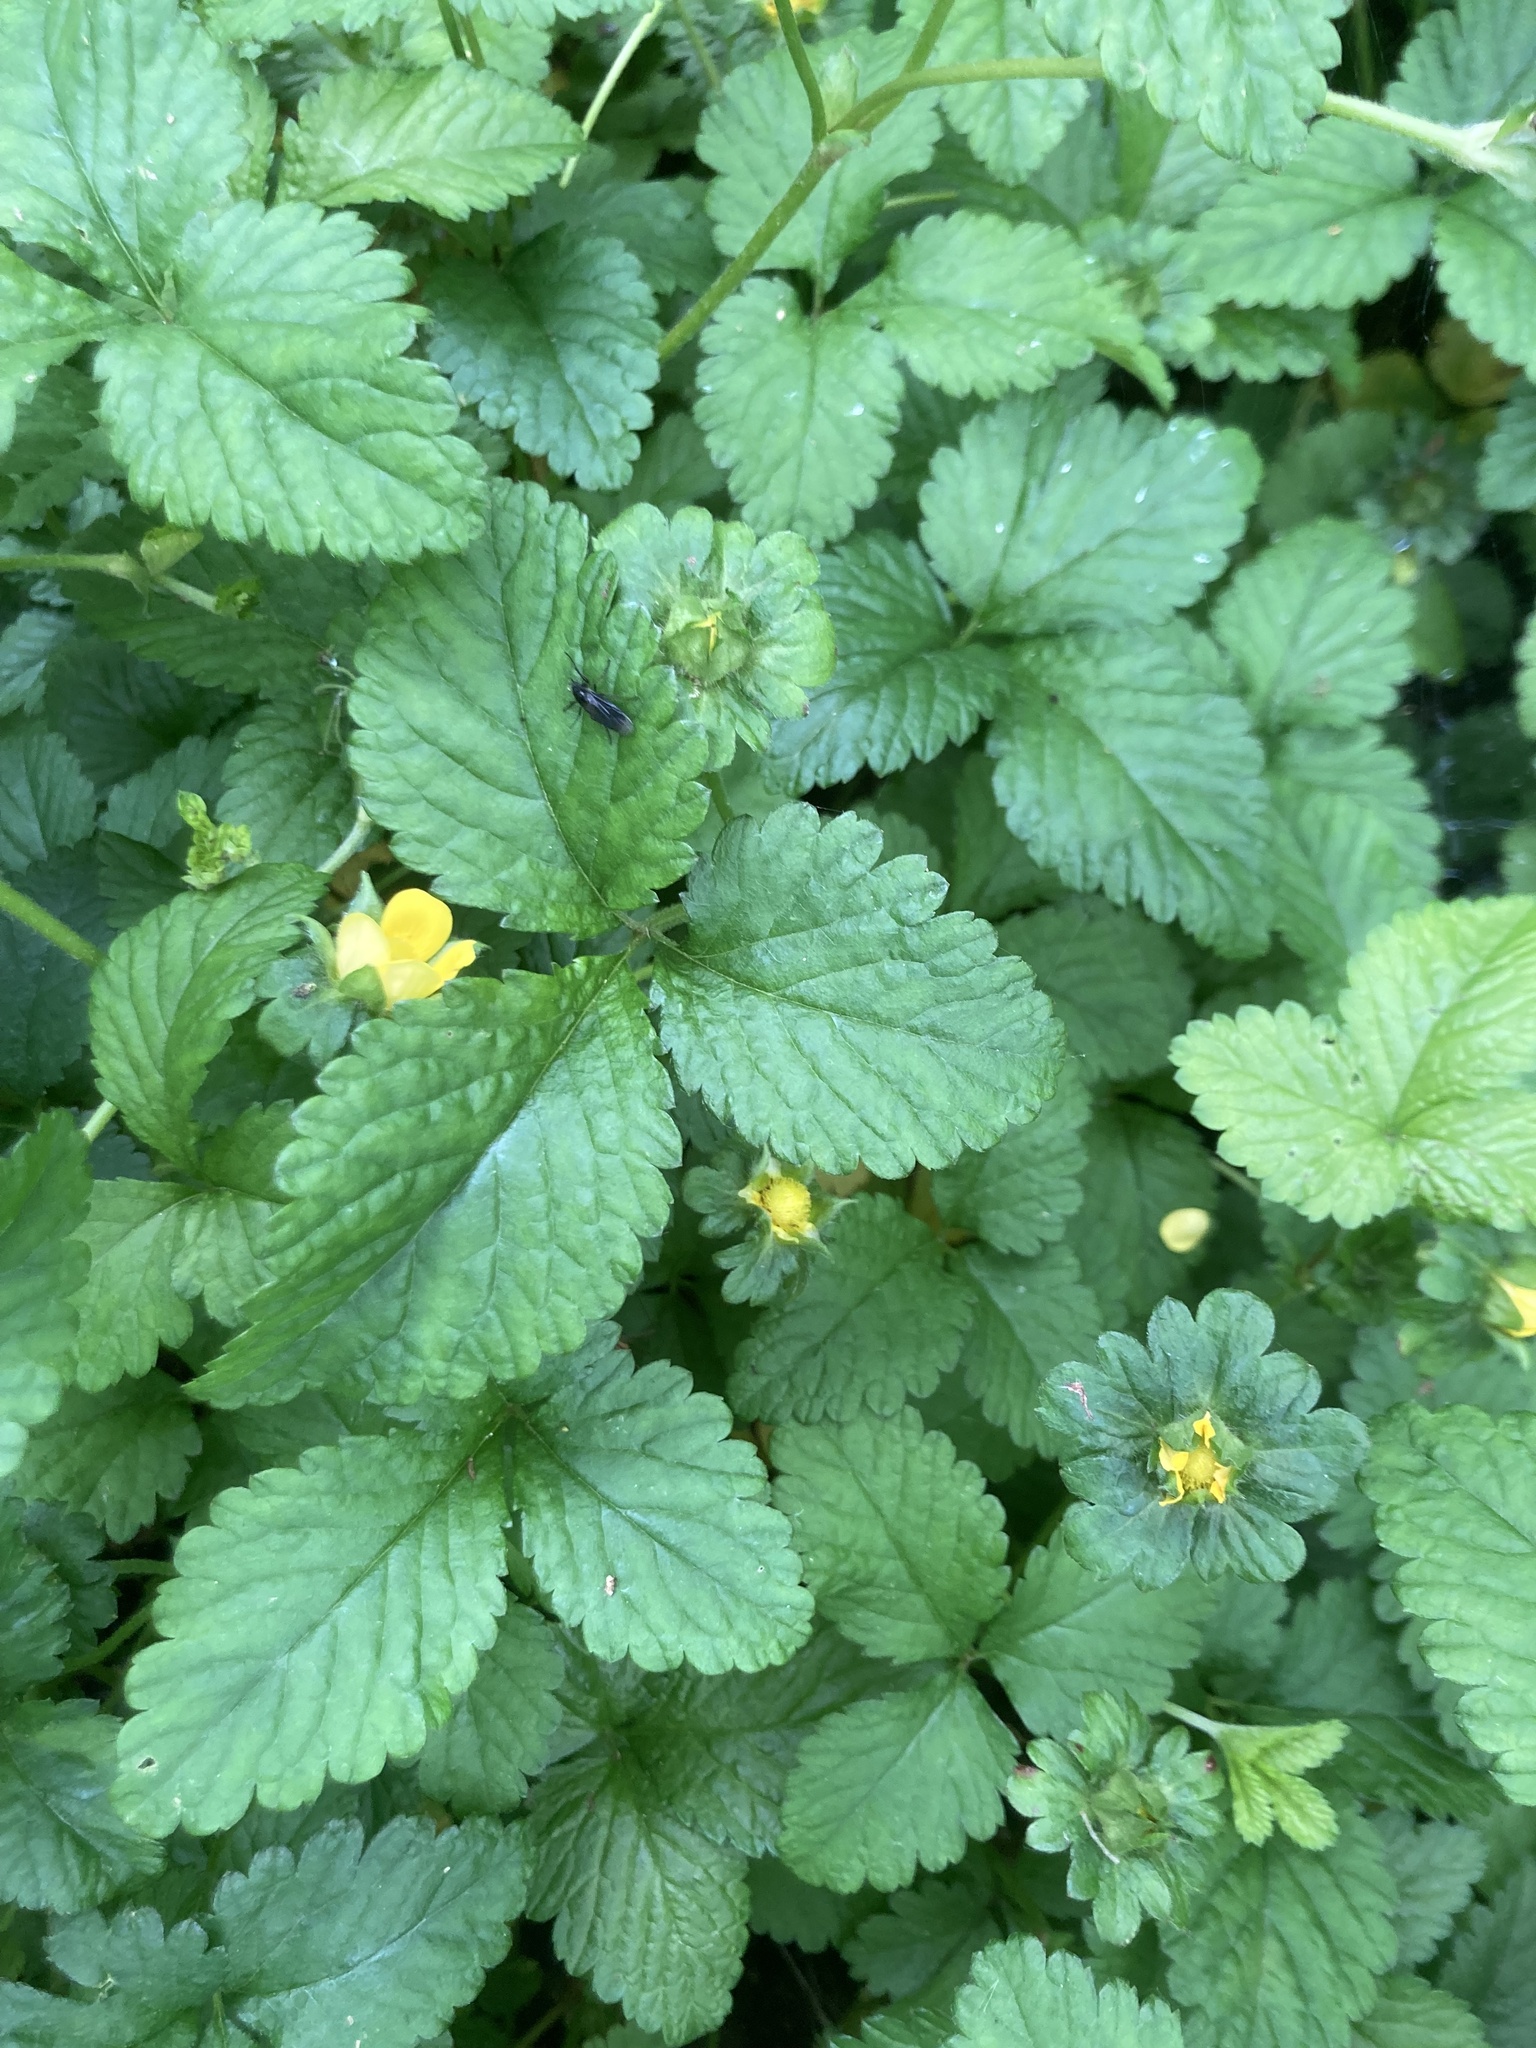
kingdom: Plantae
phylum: Tracheophyta
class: Magnoliopsida
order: Rosales
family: Rosaceae
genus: Potentilla
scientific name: Potentilla indica
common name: Yellow-flowered strawberry
